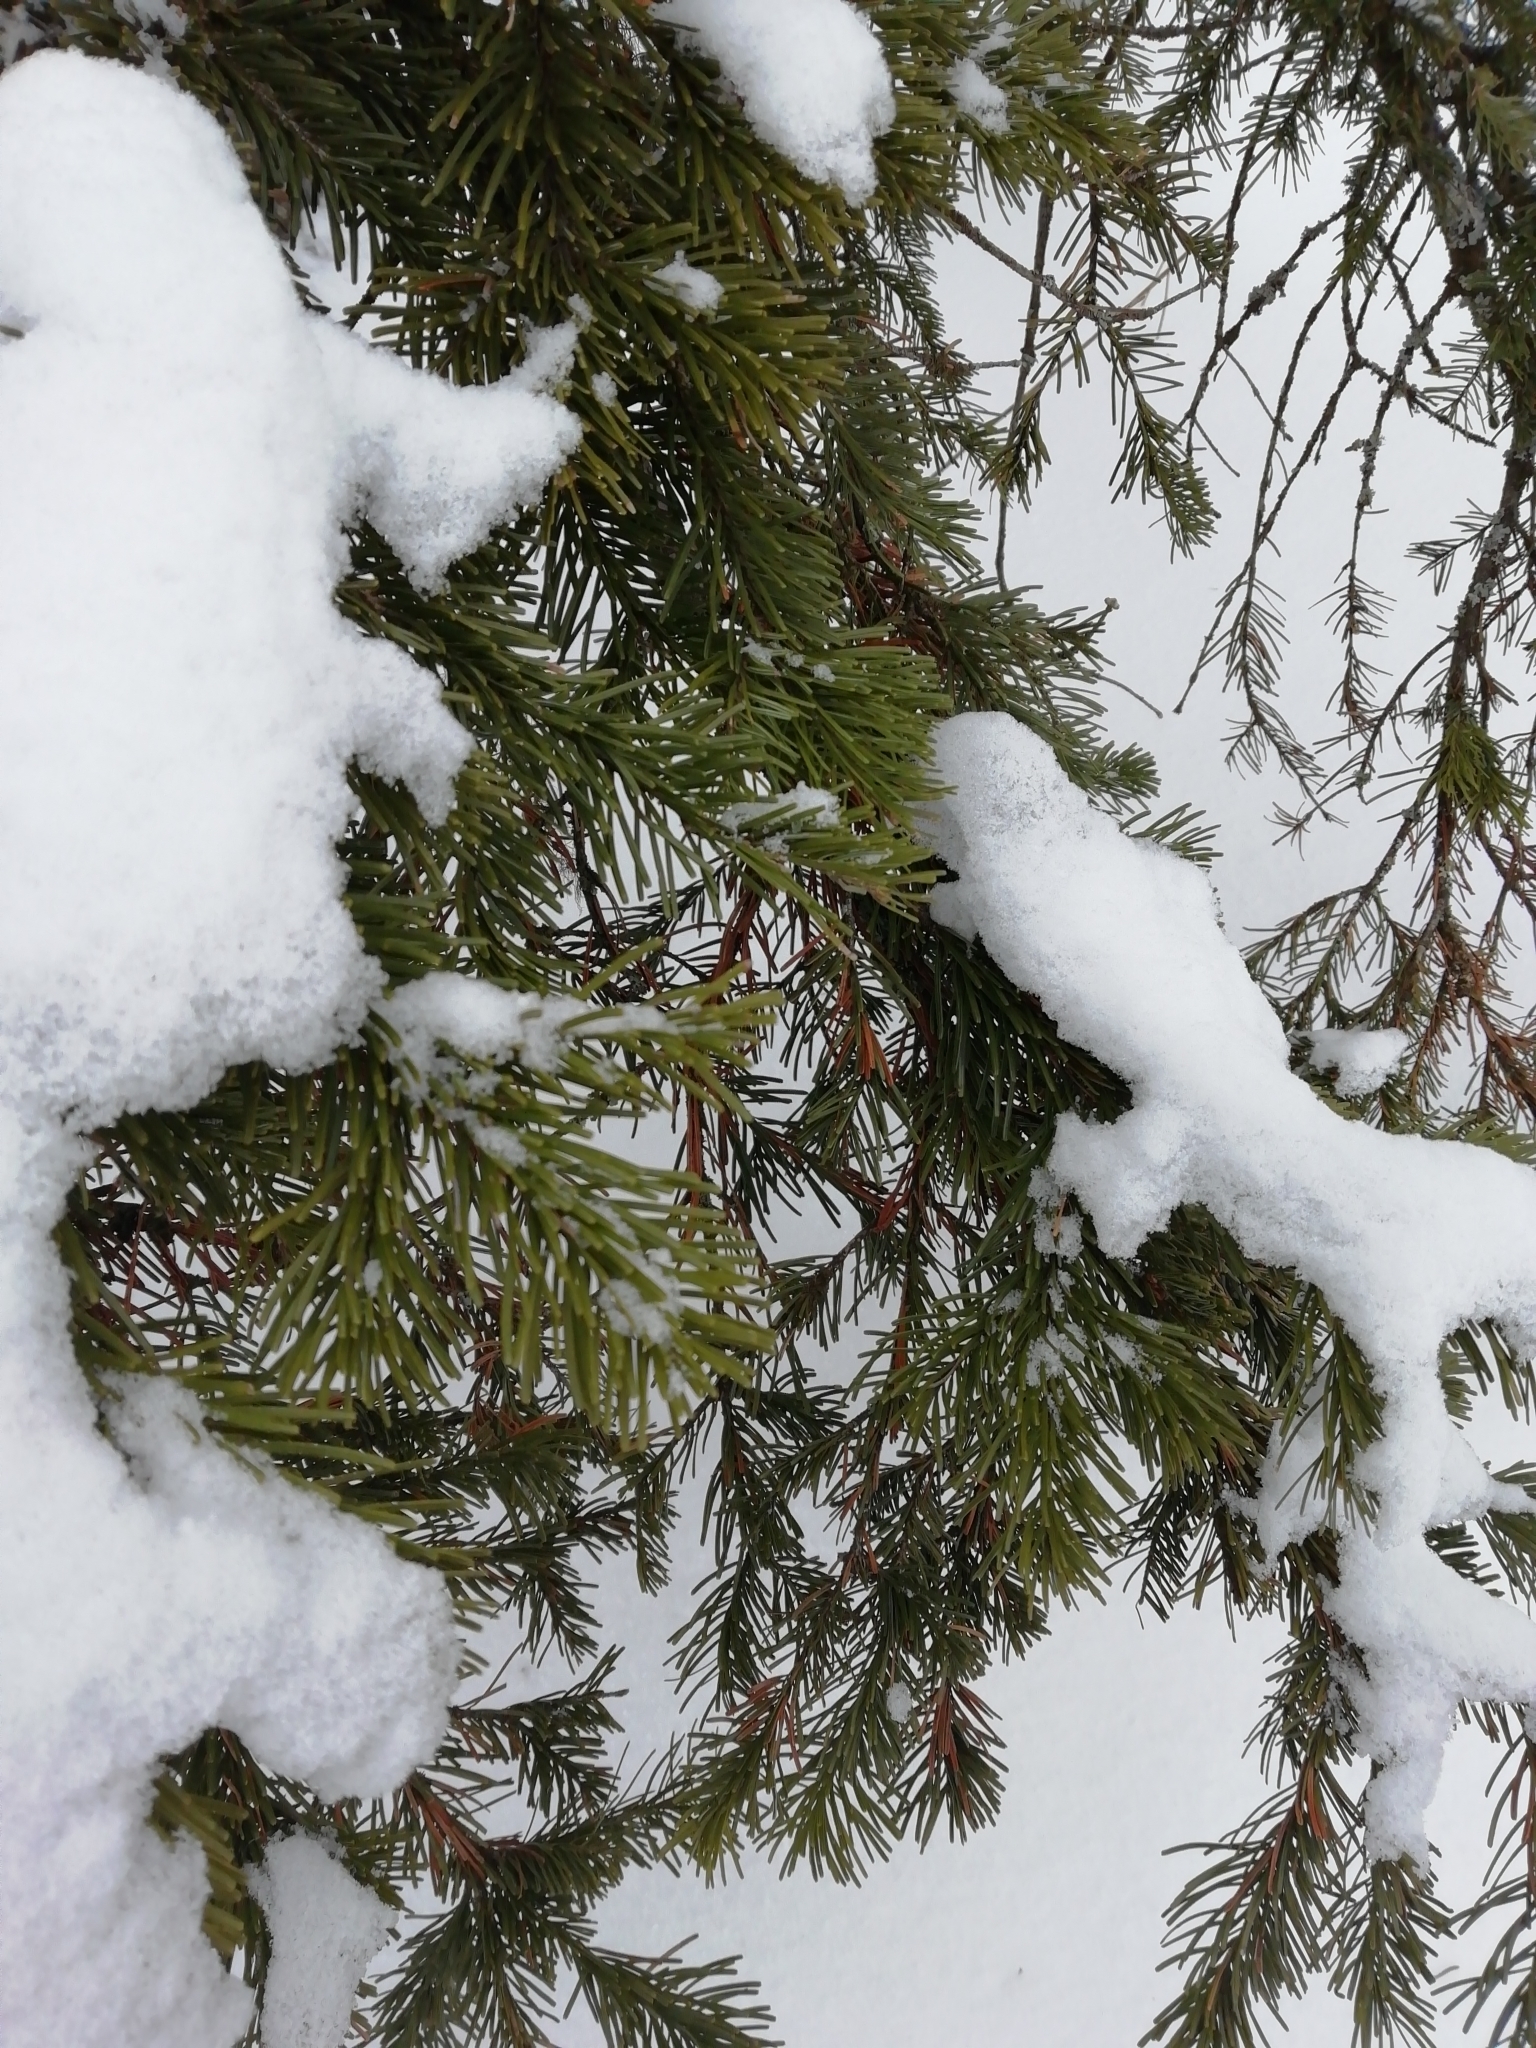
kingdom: Plantae
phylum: Tracheophyta
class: Pinopsida
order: Pinales
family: Pinaceae
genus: Picea
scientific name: Picea obovata
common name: Siberian spruce
